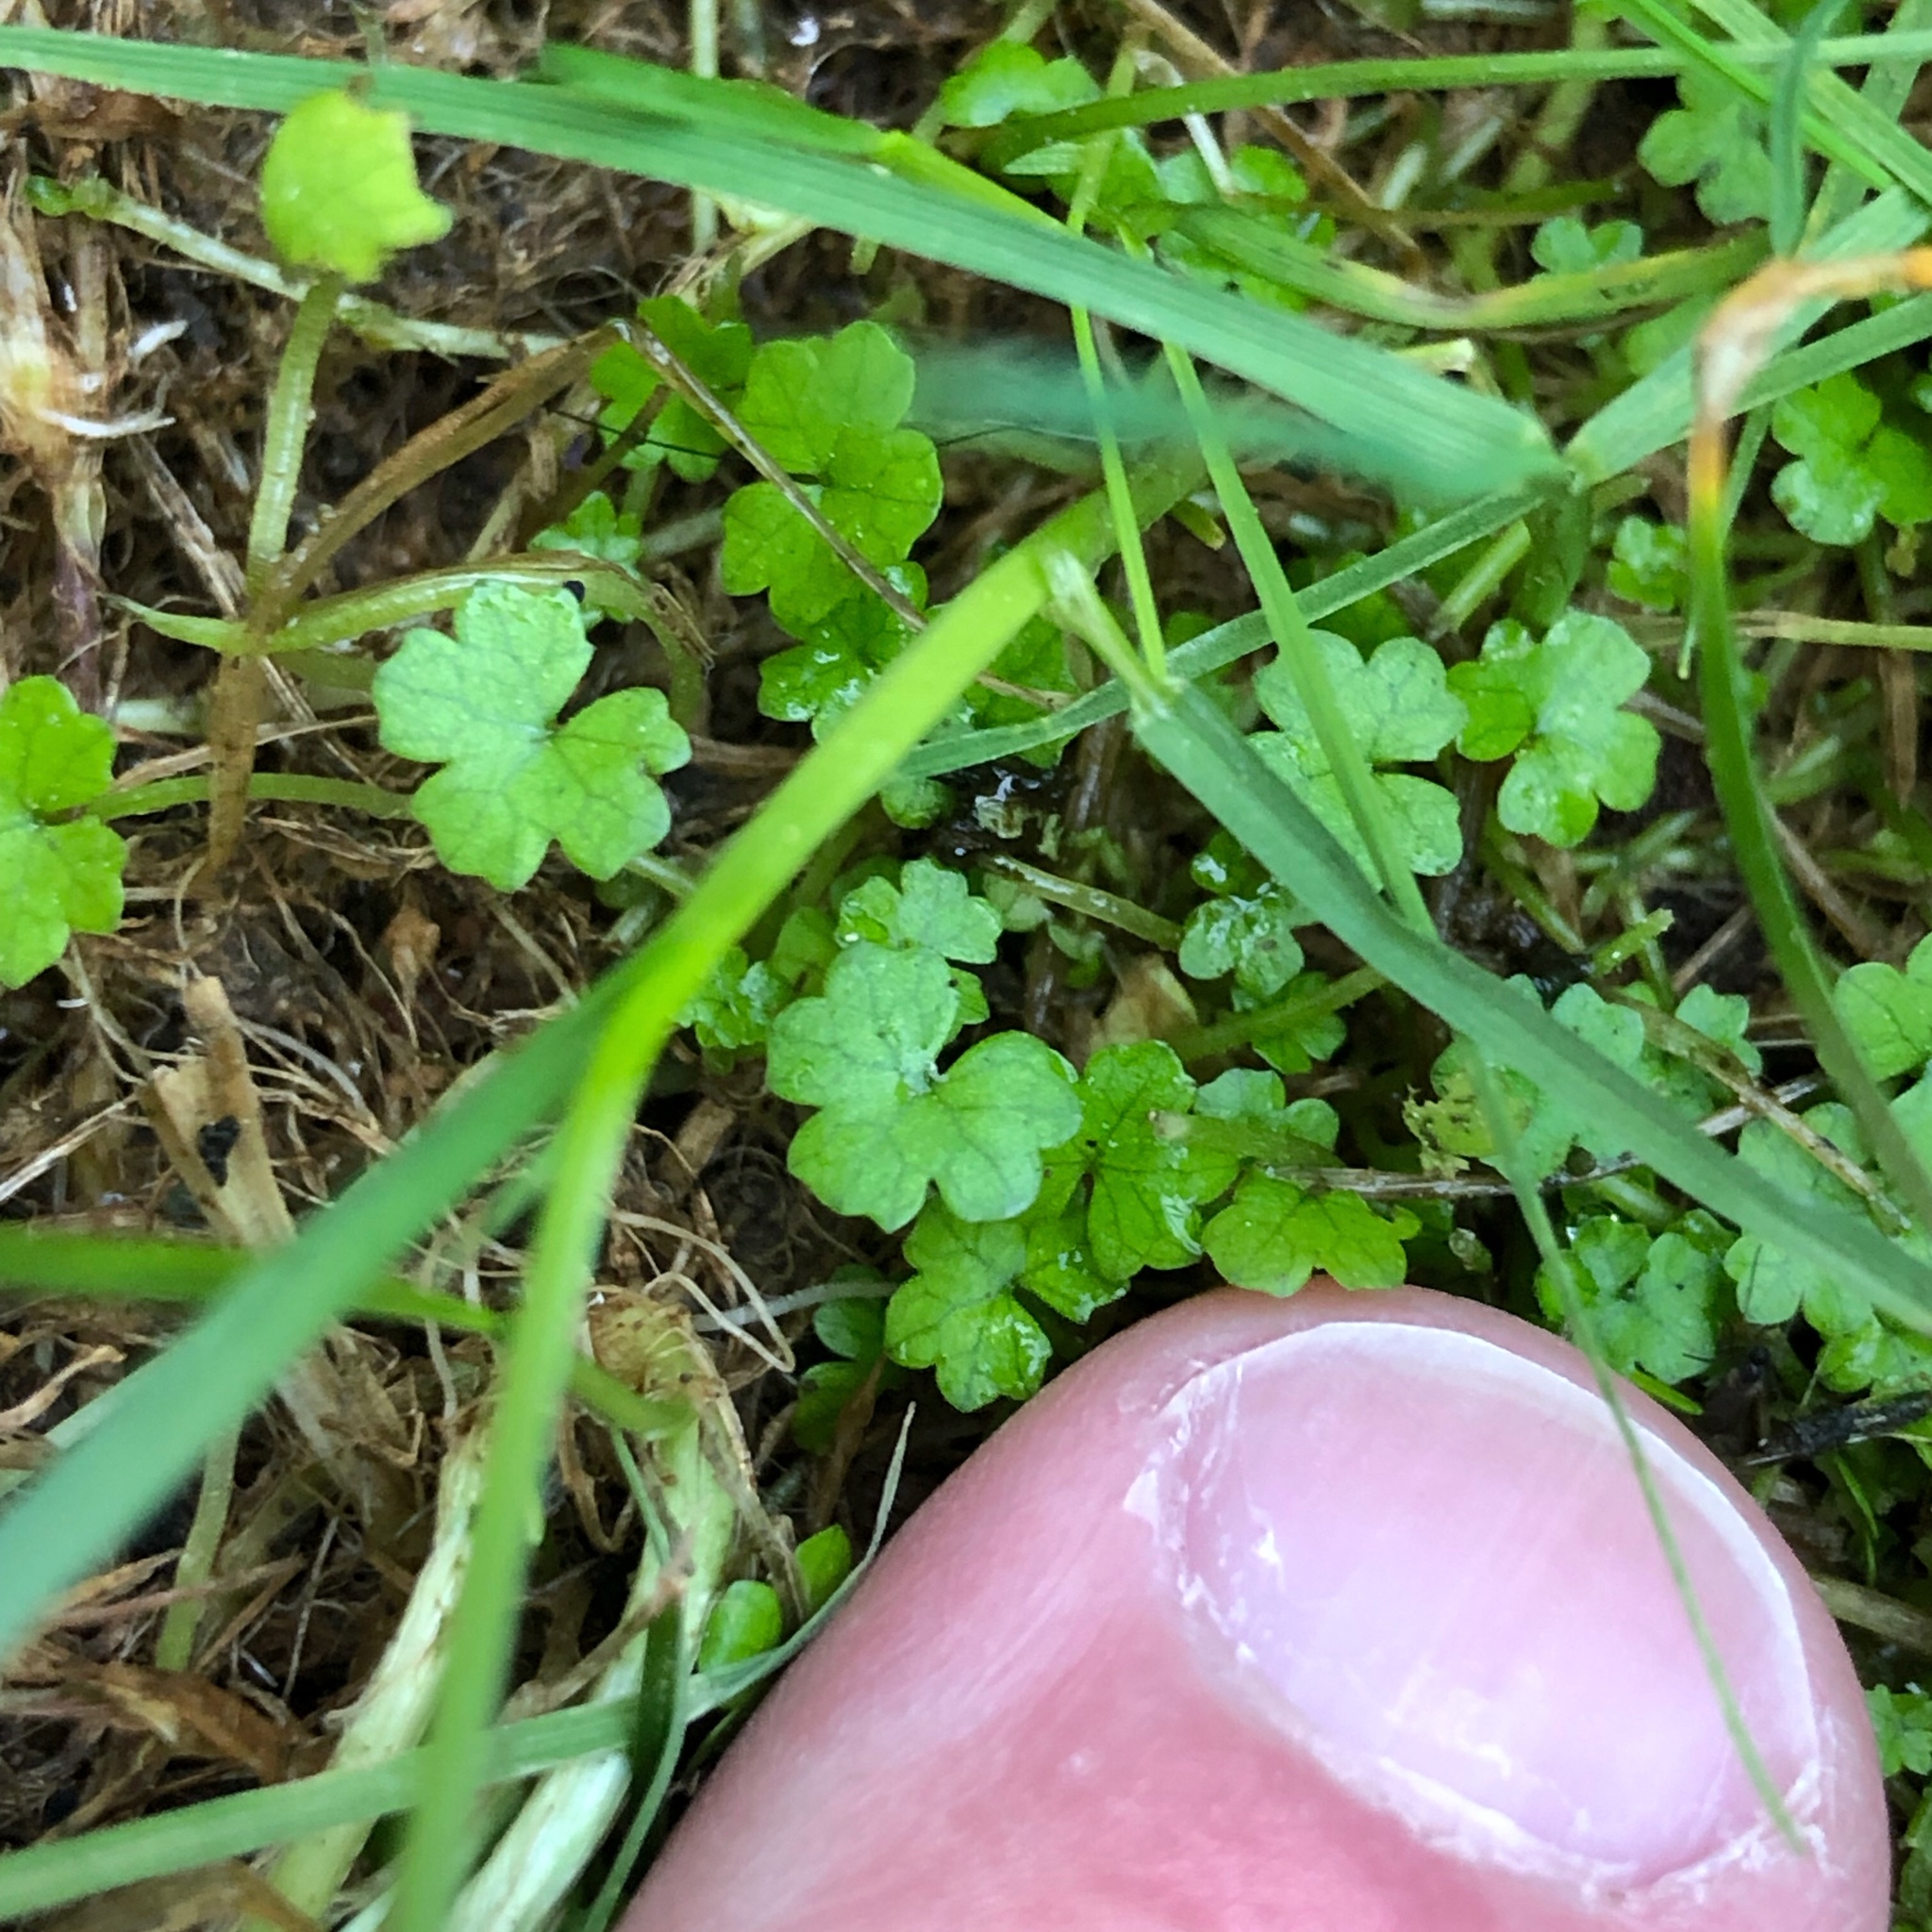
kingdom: Plantae
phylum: Tracheophyta
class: Magnoliopsida
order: Apiales
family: Araliaceae
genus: Hydrocotyle
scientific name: Hydrocotyle heteromeria
